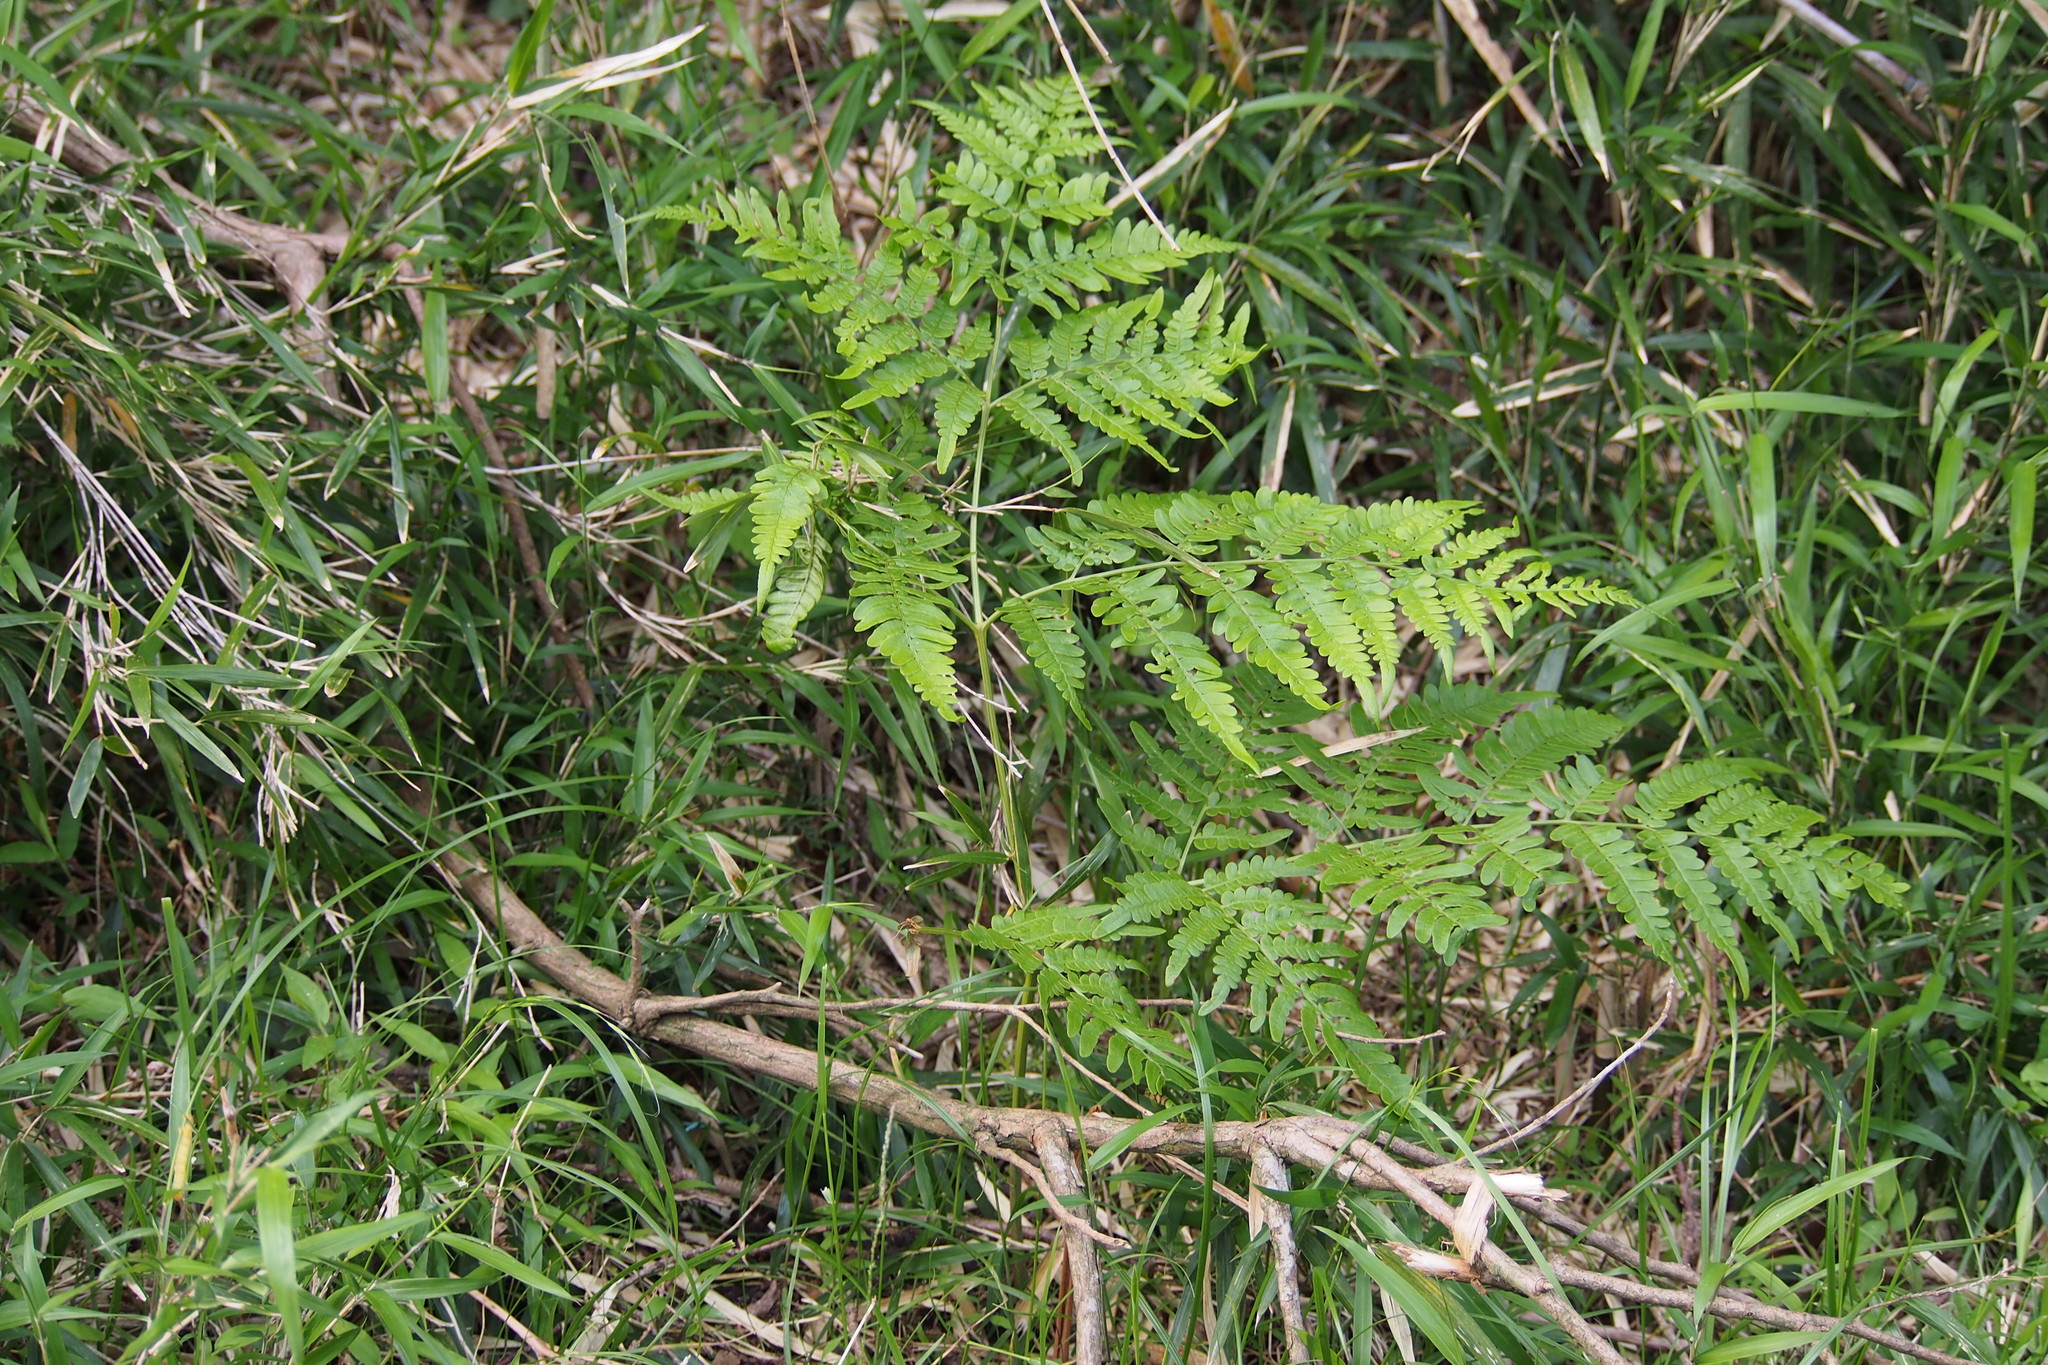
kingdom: Plantae
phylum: Tracheophyta
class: Polypodiopsida
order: Polypodiales
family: Dennstaedtiaceae
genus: Pteridium
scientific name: Pteridium aquilinum
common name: Bracken
